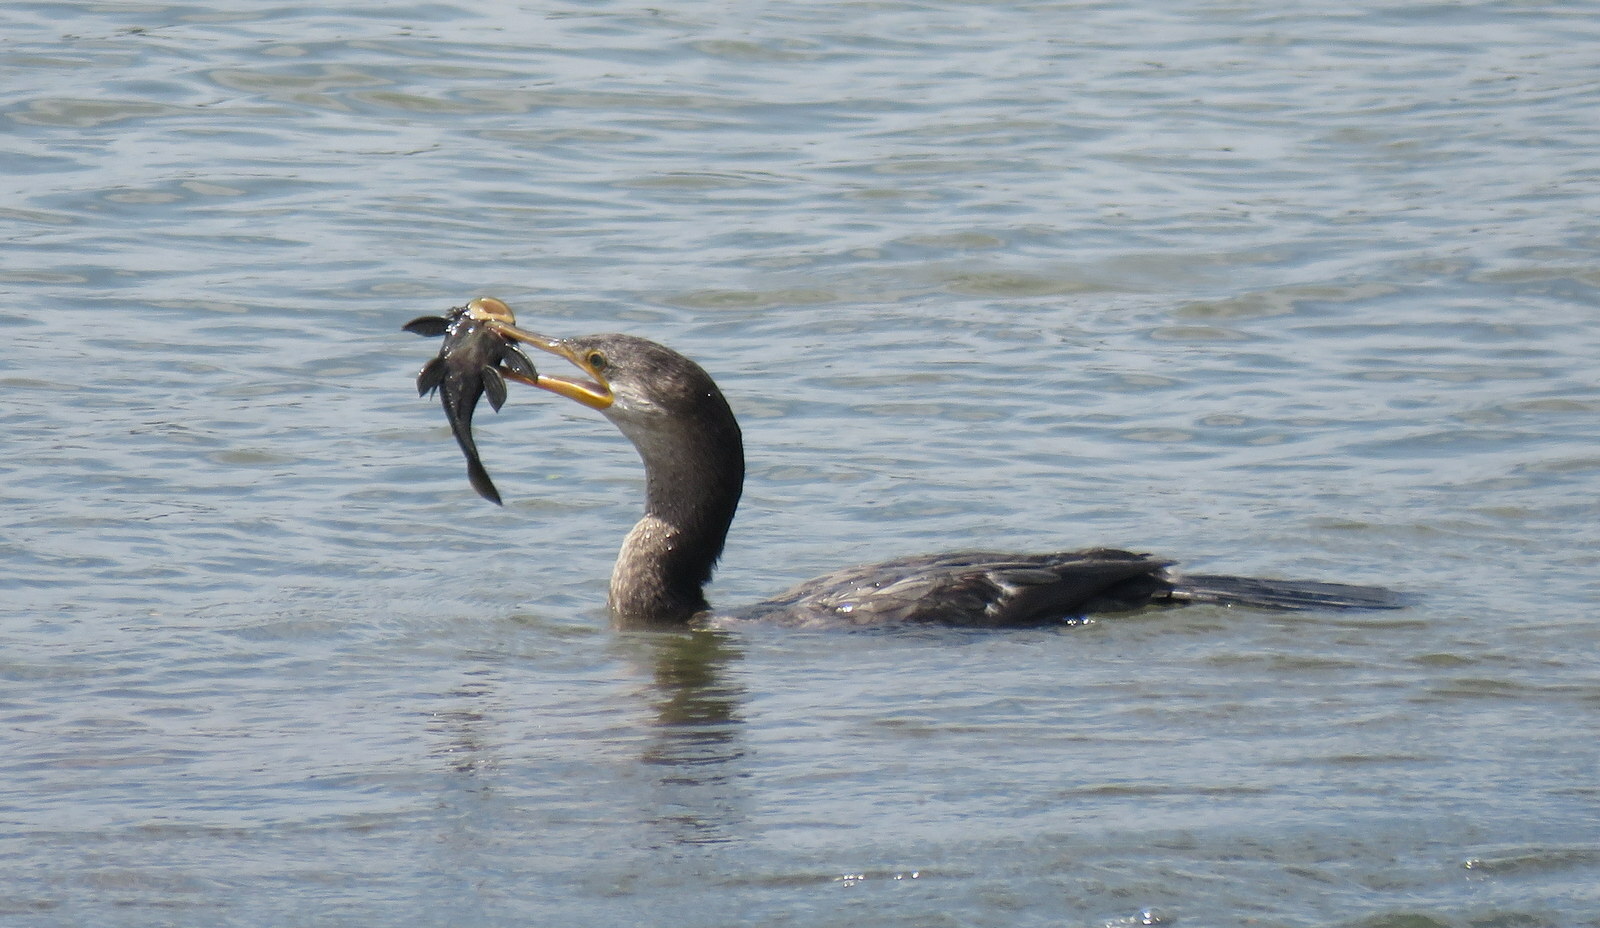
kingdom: Animalia
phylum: Chordata
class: Aves
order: Suliformes
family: Phalacrocoracidae
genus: Phalacrocorax
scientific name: Phalacrocorax brasilianus
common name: Neotropic cormorant
